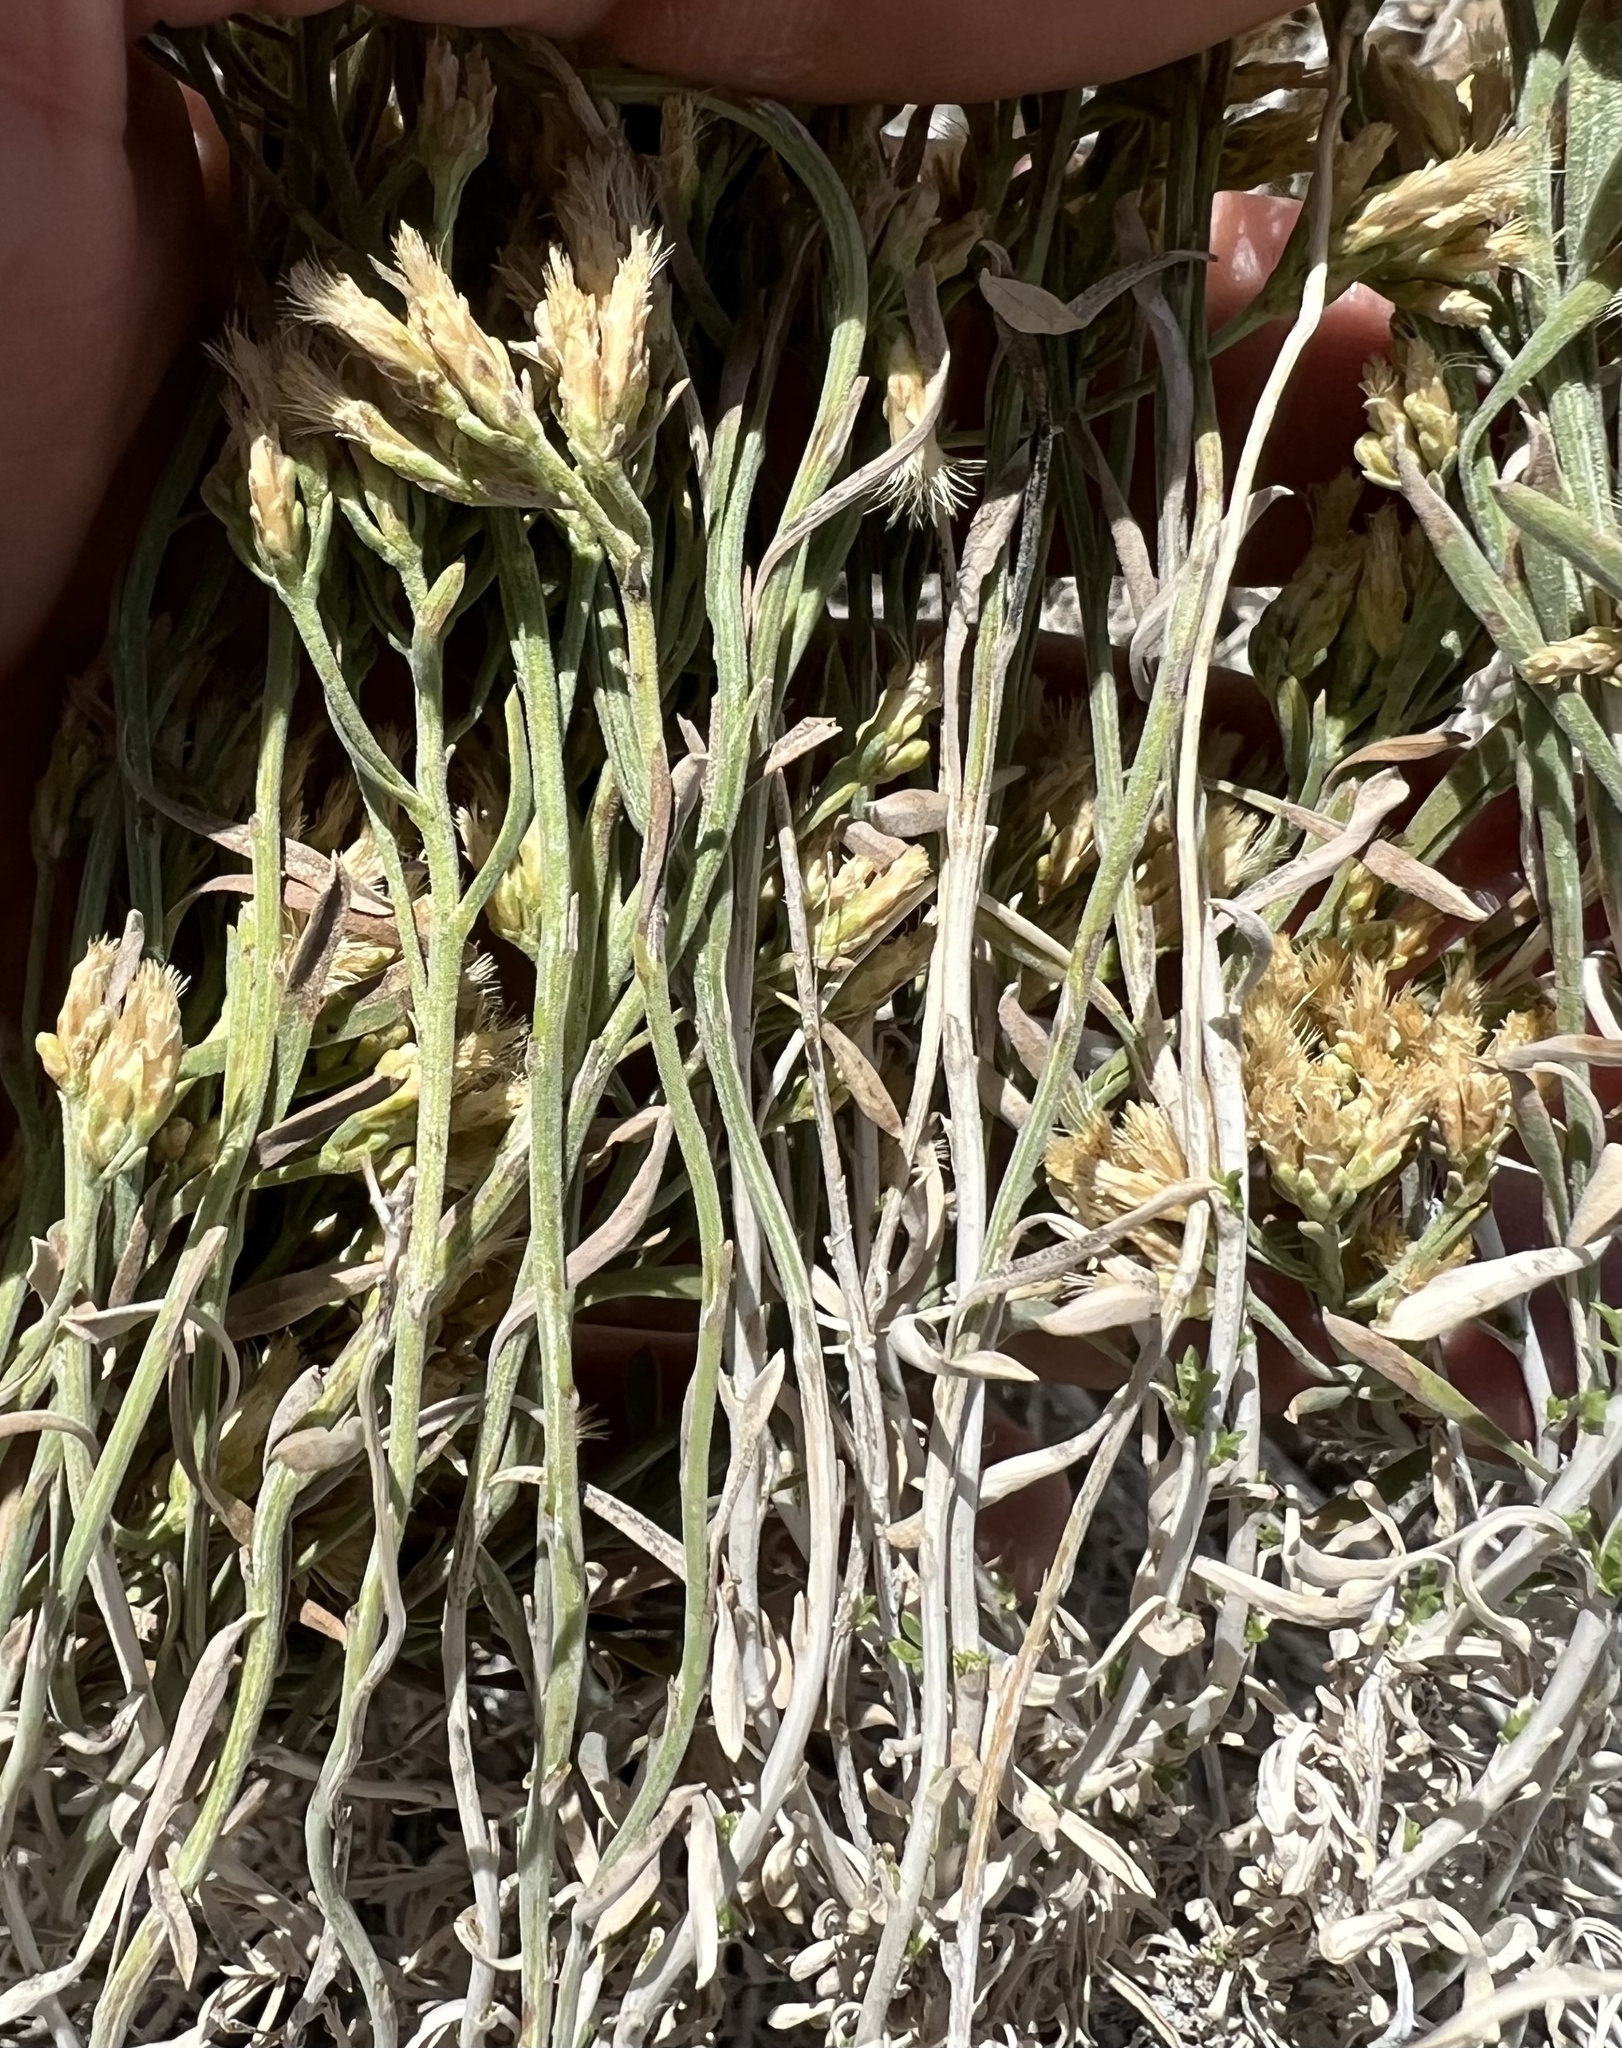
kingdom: Plantae
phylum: Tracheophyta
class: Magnoliopsida
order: Asterales
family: Asteraceae
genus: Chrysothamnus
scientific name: Chrysothamnus viscidiflorus
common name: Yellow rabbitbrush
